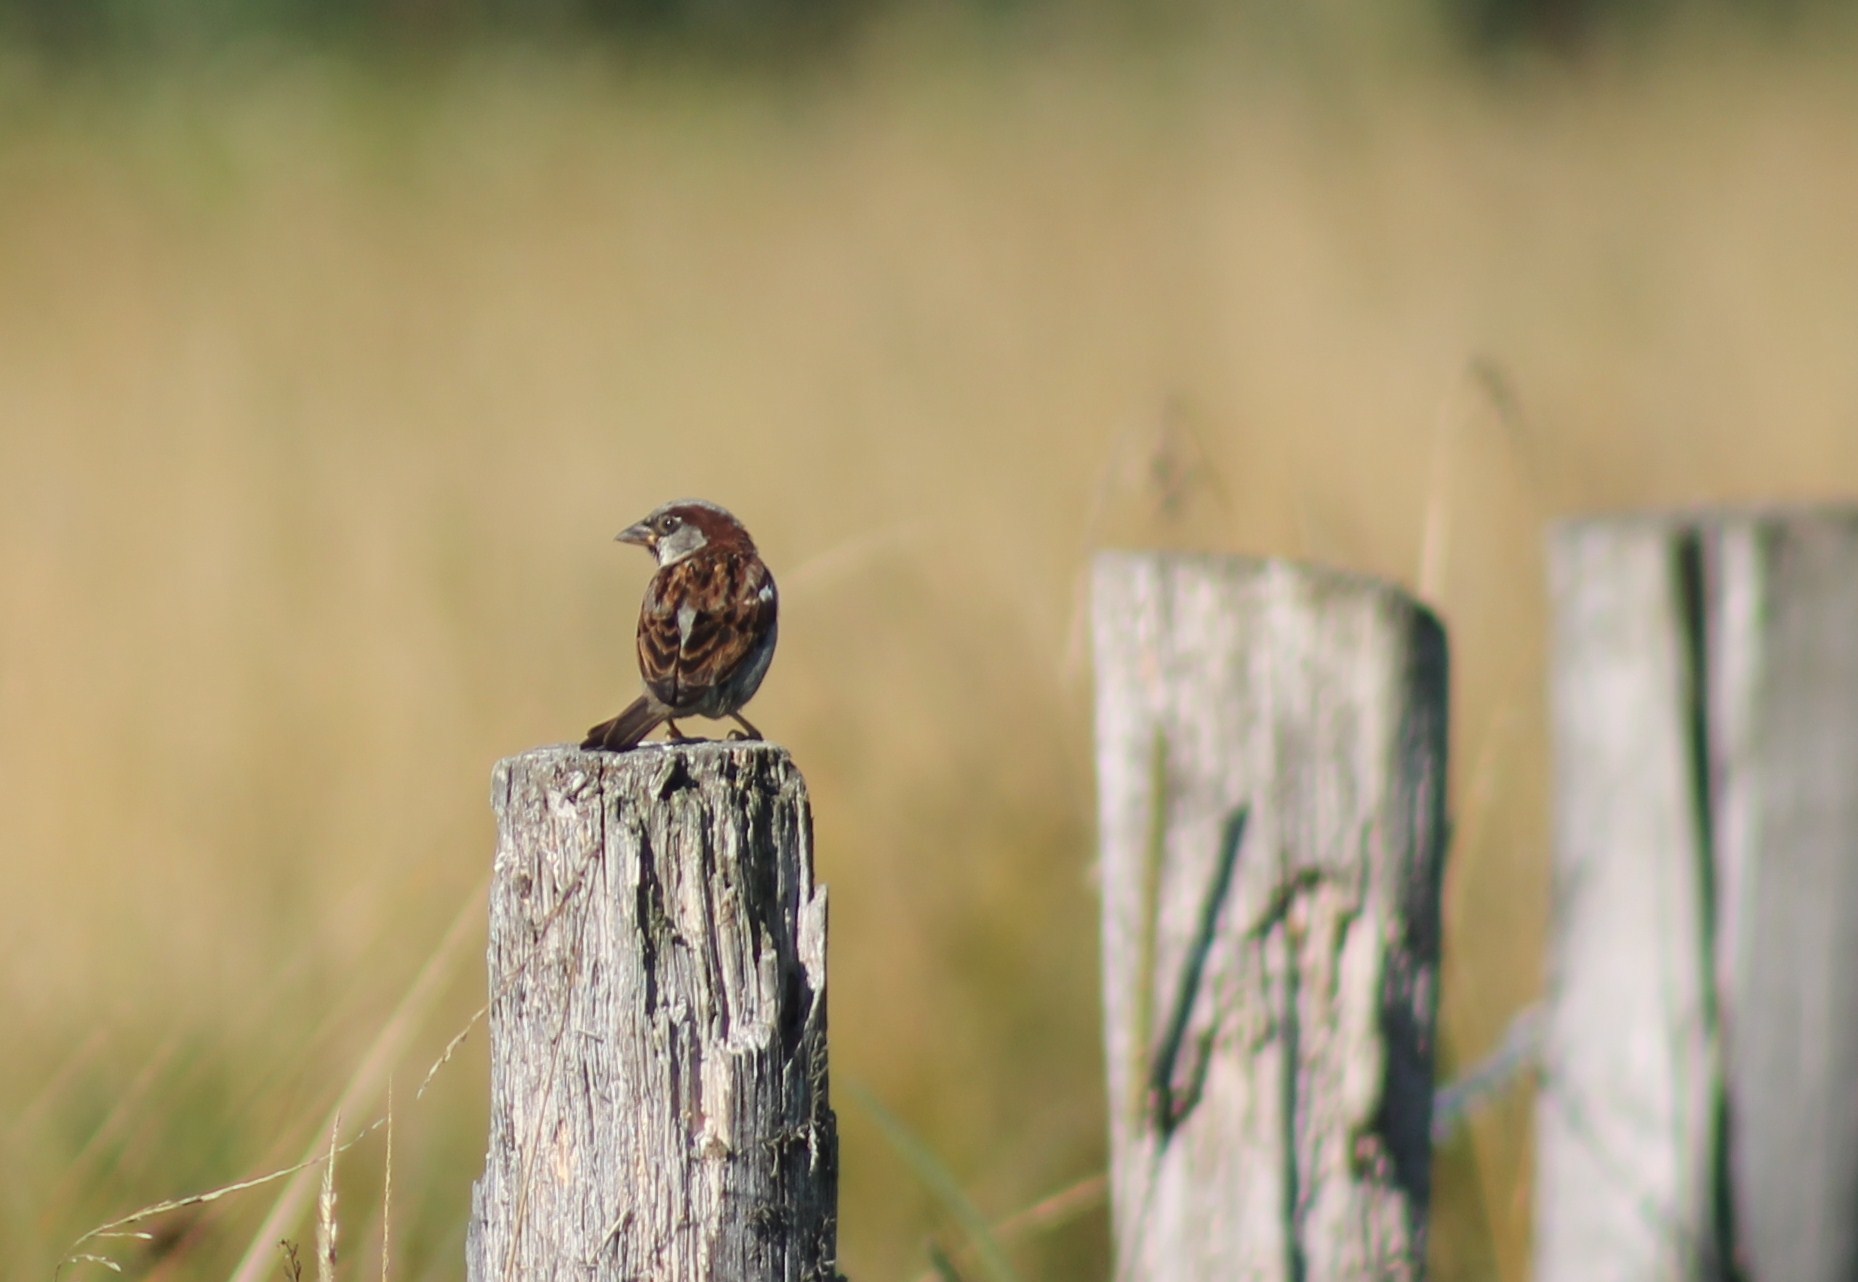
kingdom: Animalia
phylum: Chordata
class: Aves
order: Passeriformes
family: Passeridae
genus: Passer
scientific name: Passer domesticus
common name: House sparrow
